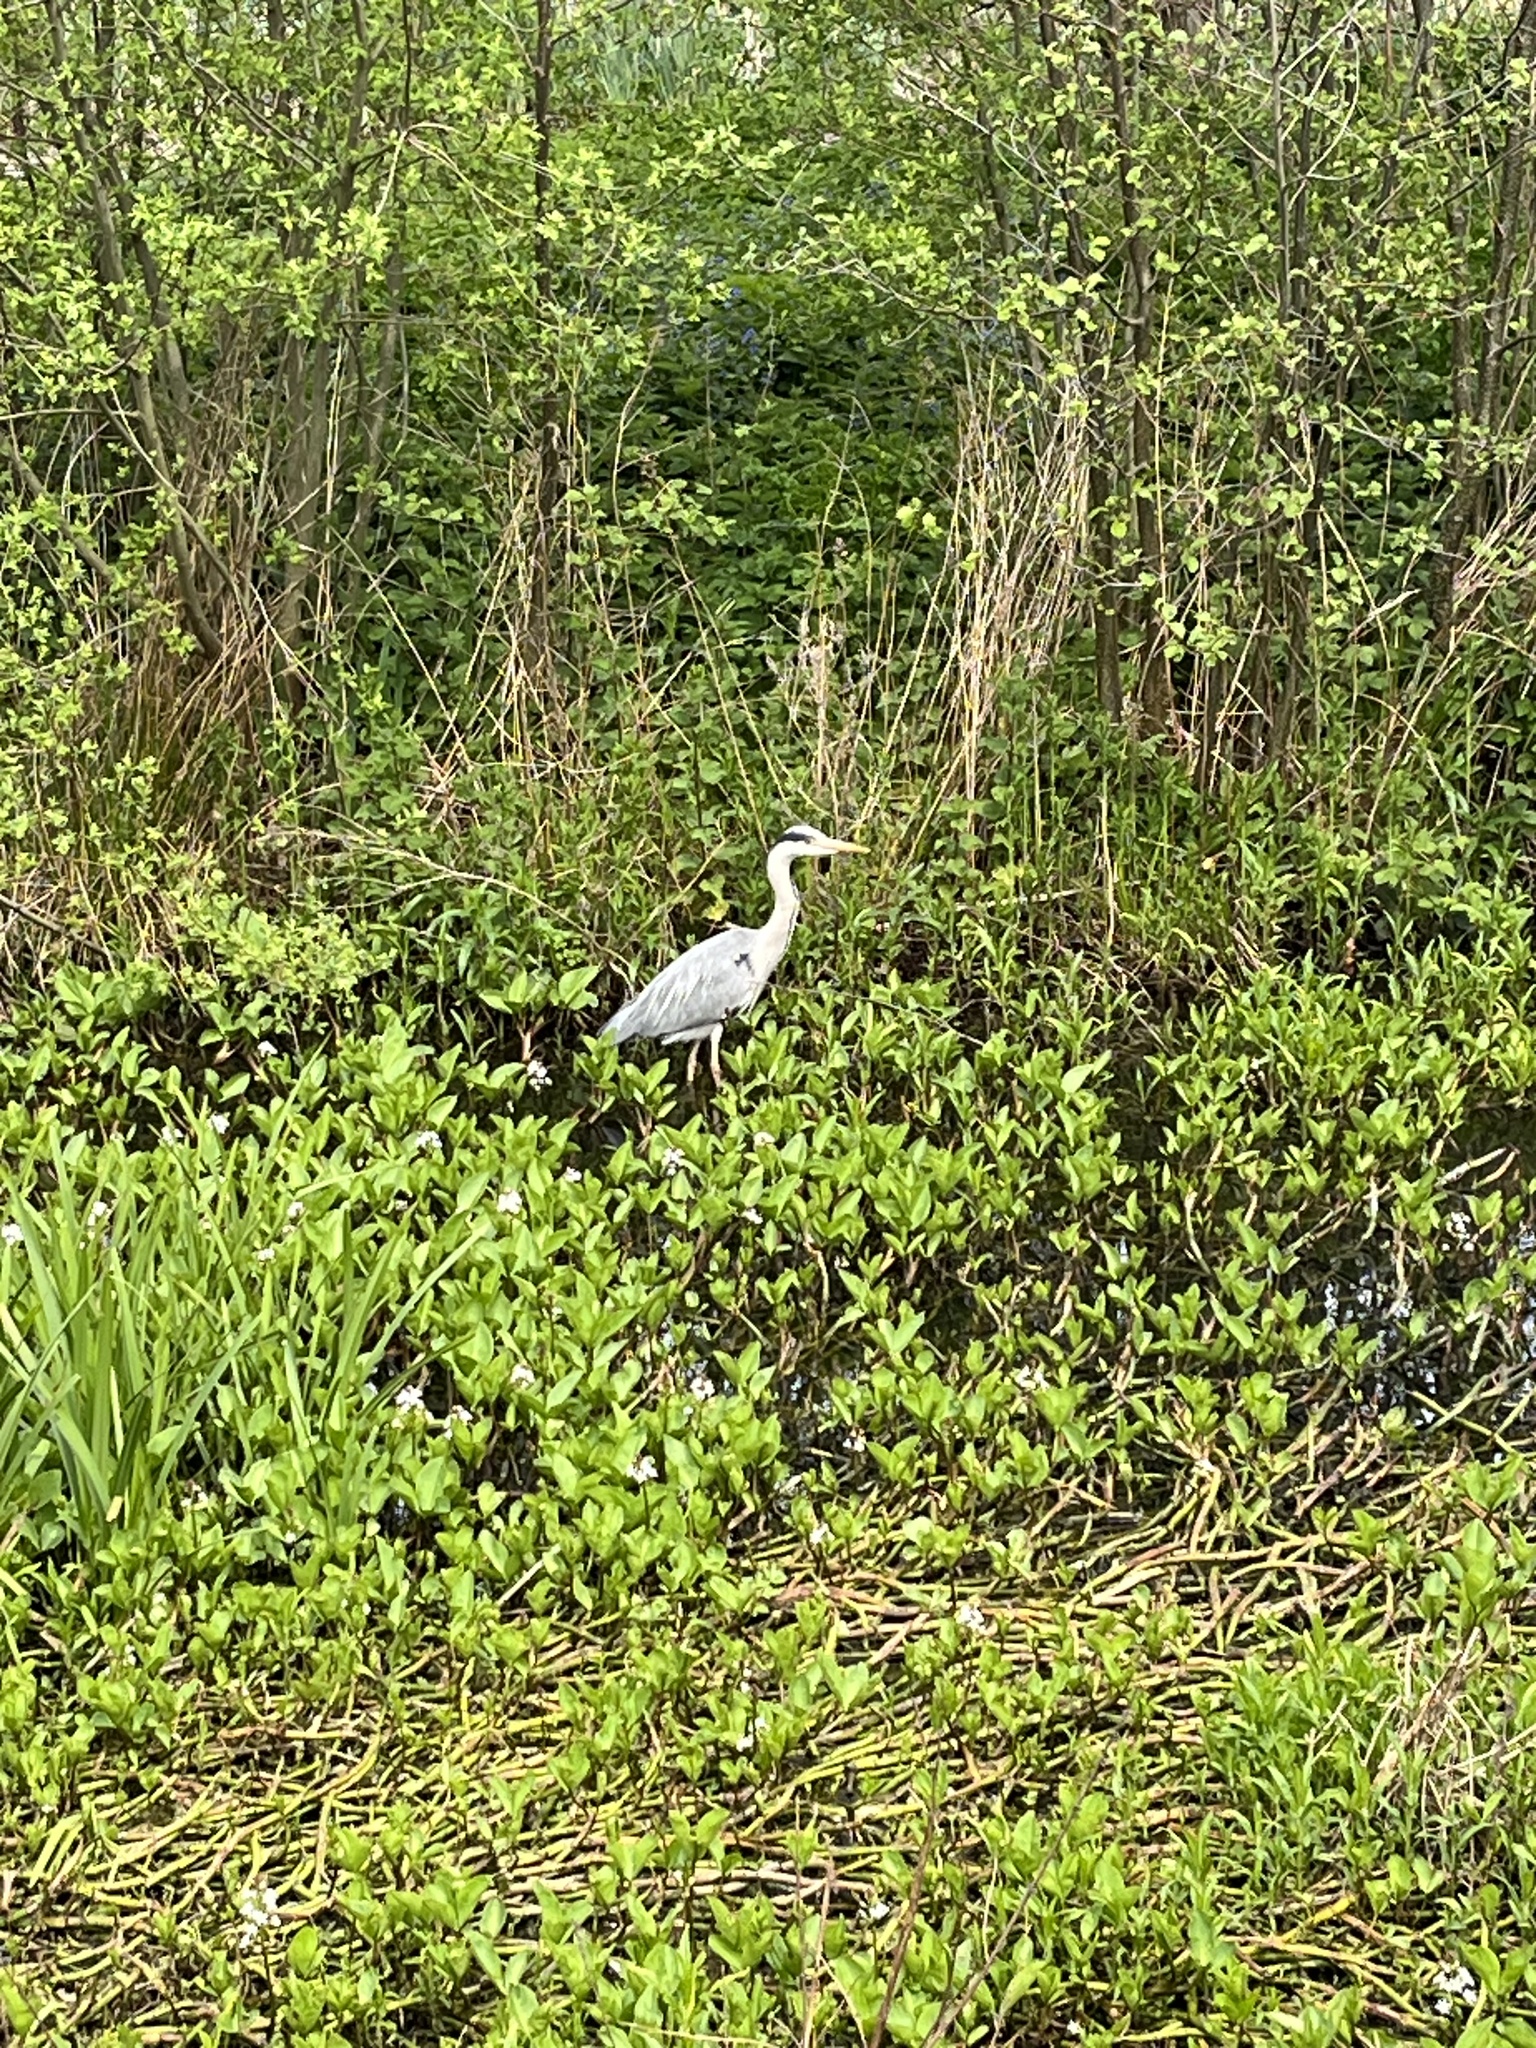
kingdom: Animalia
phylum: Chordata
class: Aves
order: Pelecaniformes
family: Ardeidae
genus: Ardea
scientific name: Ardea cinerea
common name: Grey heron
